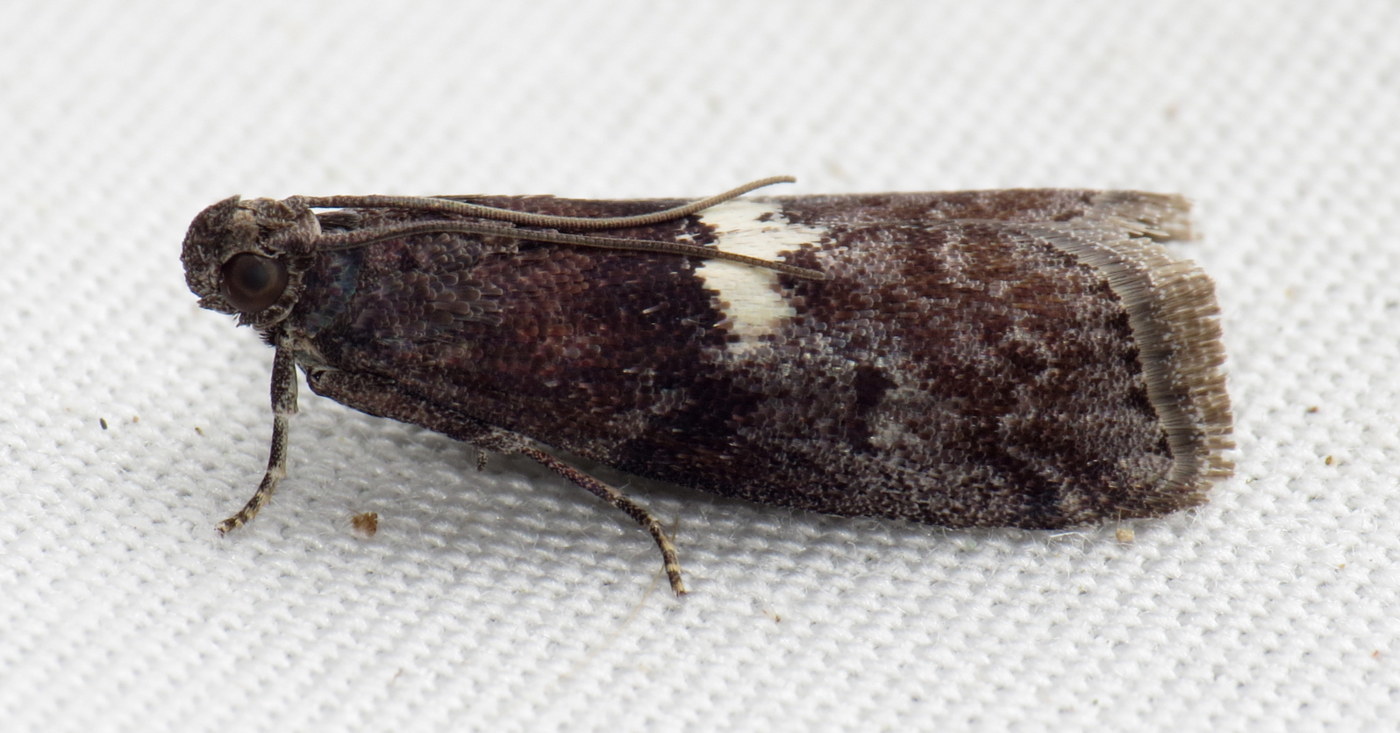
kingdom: Animalia
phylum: Arthropoda
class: Insecta
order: Lepidoptera
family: Pyralidae
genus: Salebriaria
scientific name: Salebriaria engeli
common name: Engel's salebriaria moth
